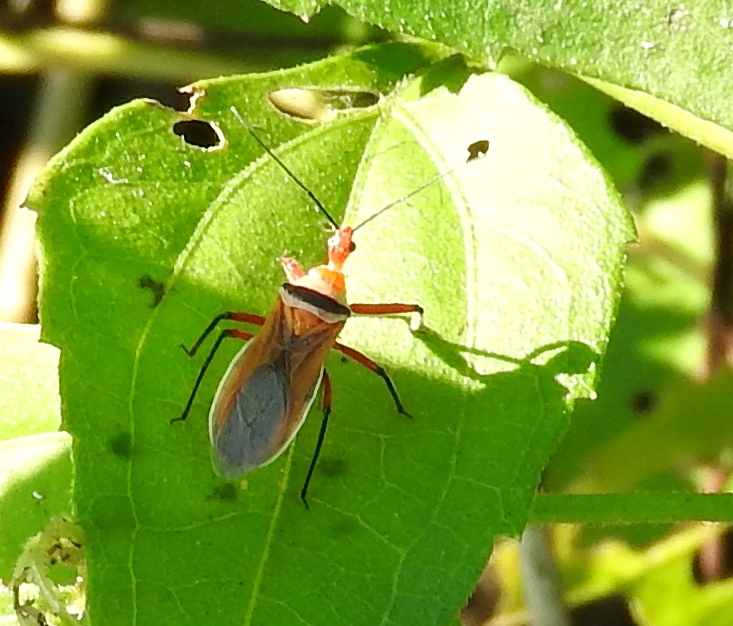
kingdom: Animalia
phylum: Arthropoda
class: Insecta
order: Hemiptera
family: Reduviidae
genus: Castolus
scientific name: Castolus
